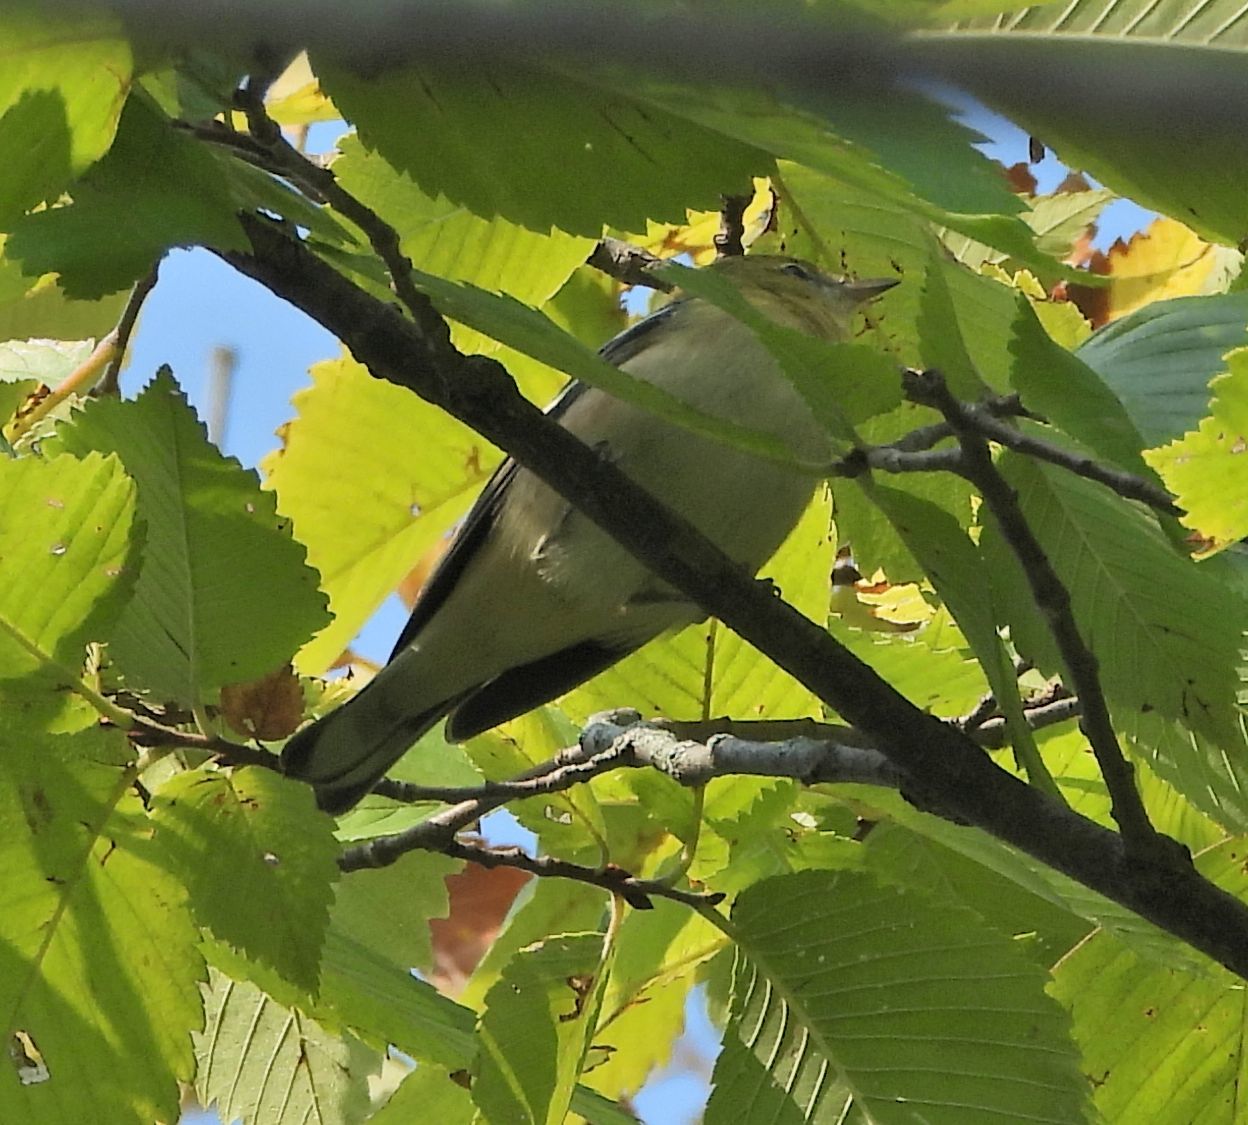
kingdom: Animalia
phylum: Chordata
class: Aves
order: Passeriformes
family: Parulidae
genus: Setophaga
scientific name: Setophaga castanea
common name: Bay-breasted warbler
